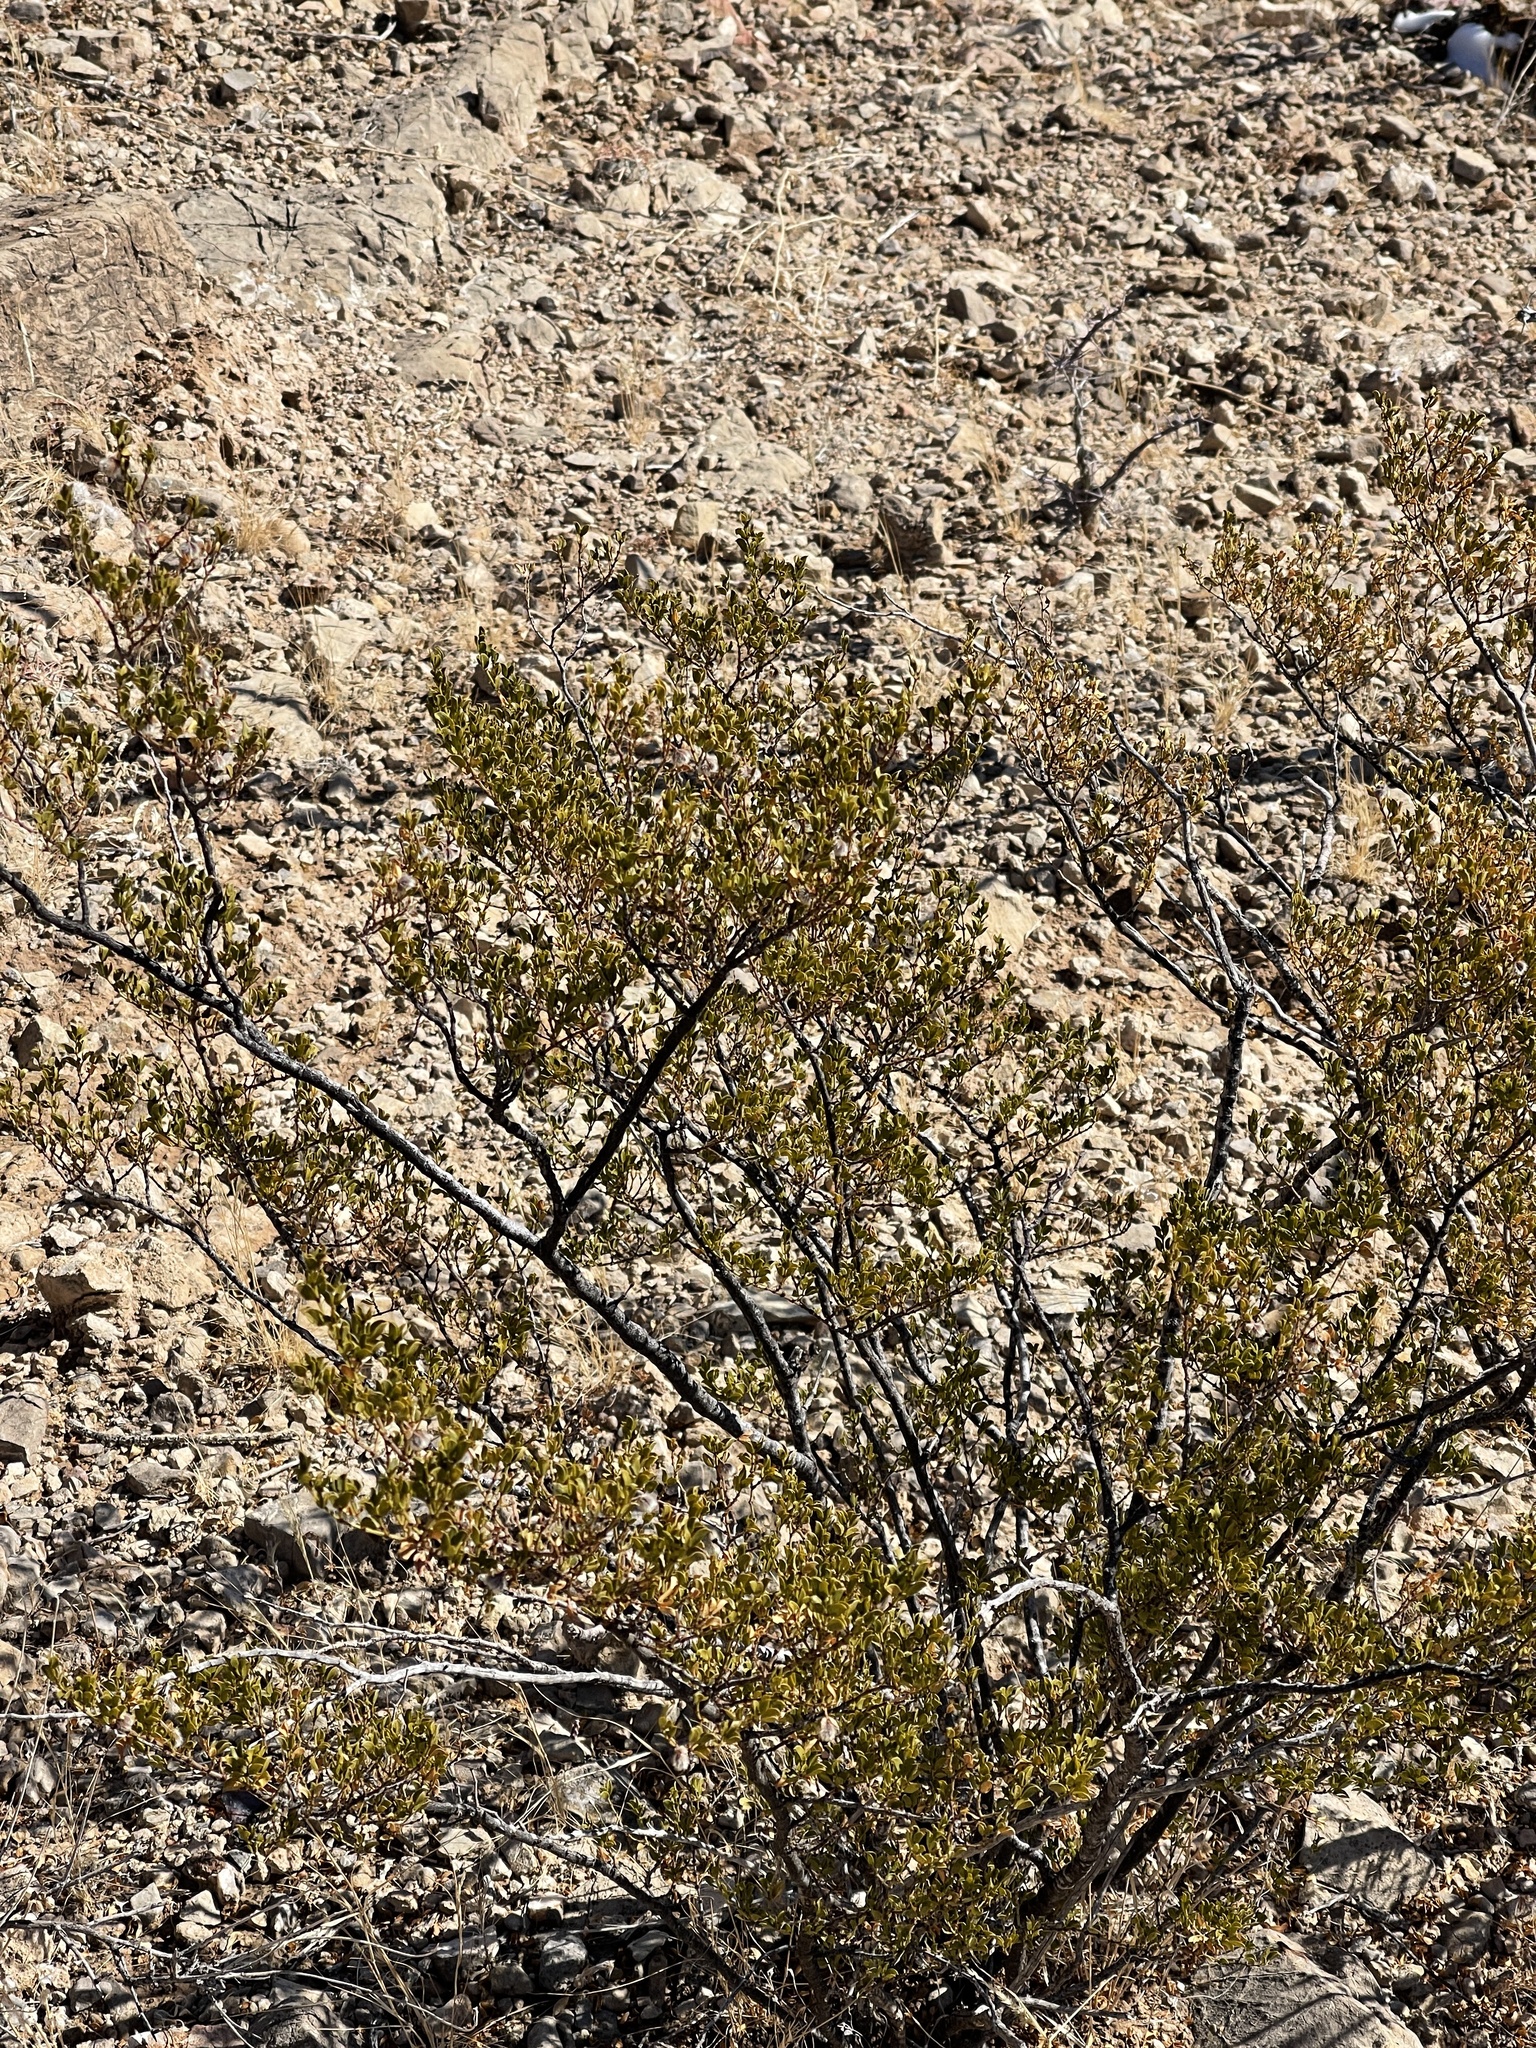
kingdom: Plantae
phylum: Tracheophyta
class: Magnoliopsida
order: Zygophyllales
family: Zygophyllaceae
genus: Larrea
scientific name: Larrea tridentata
